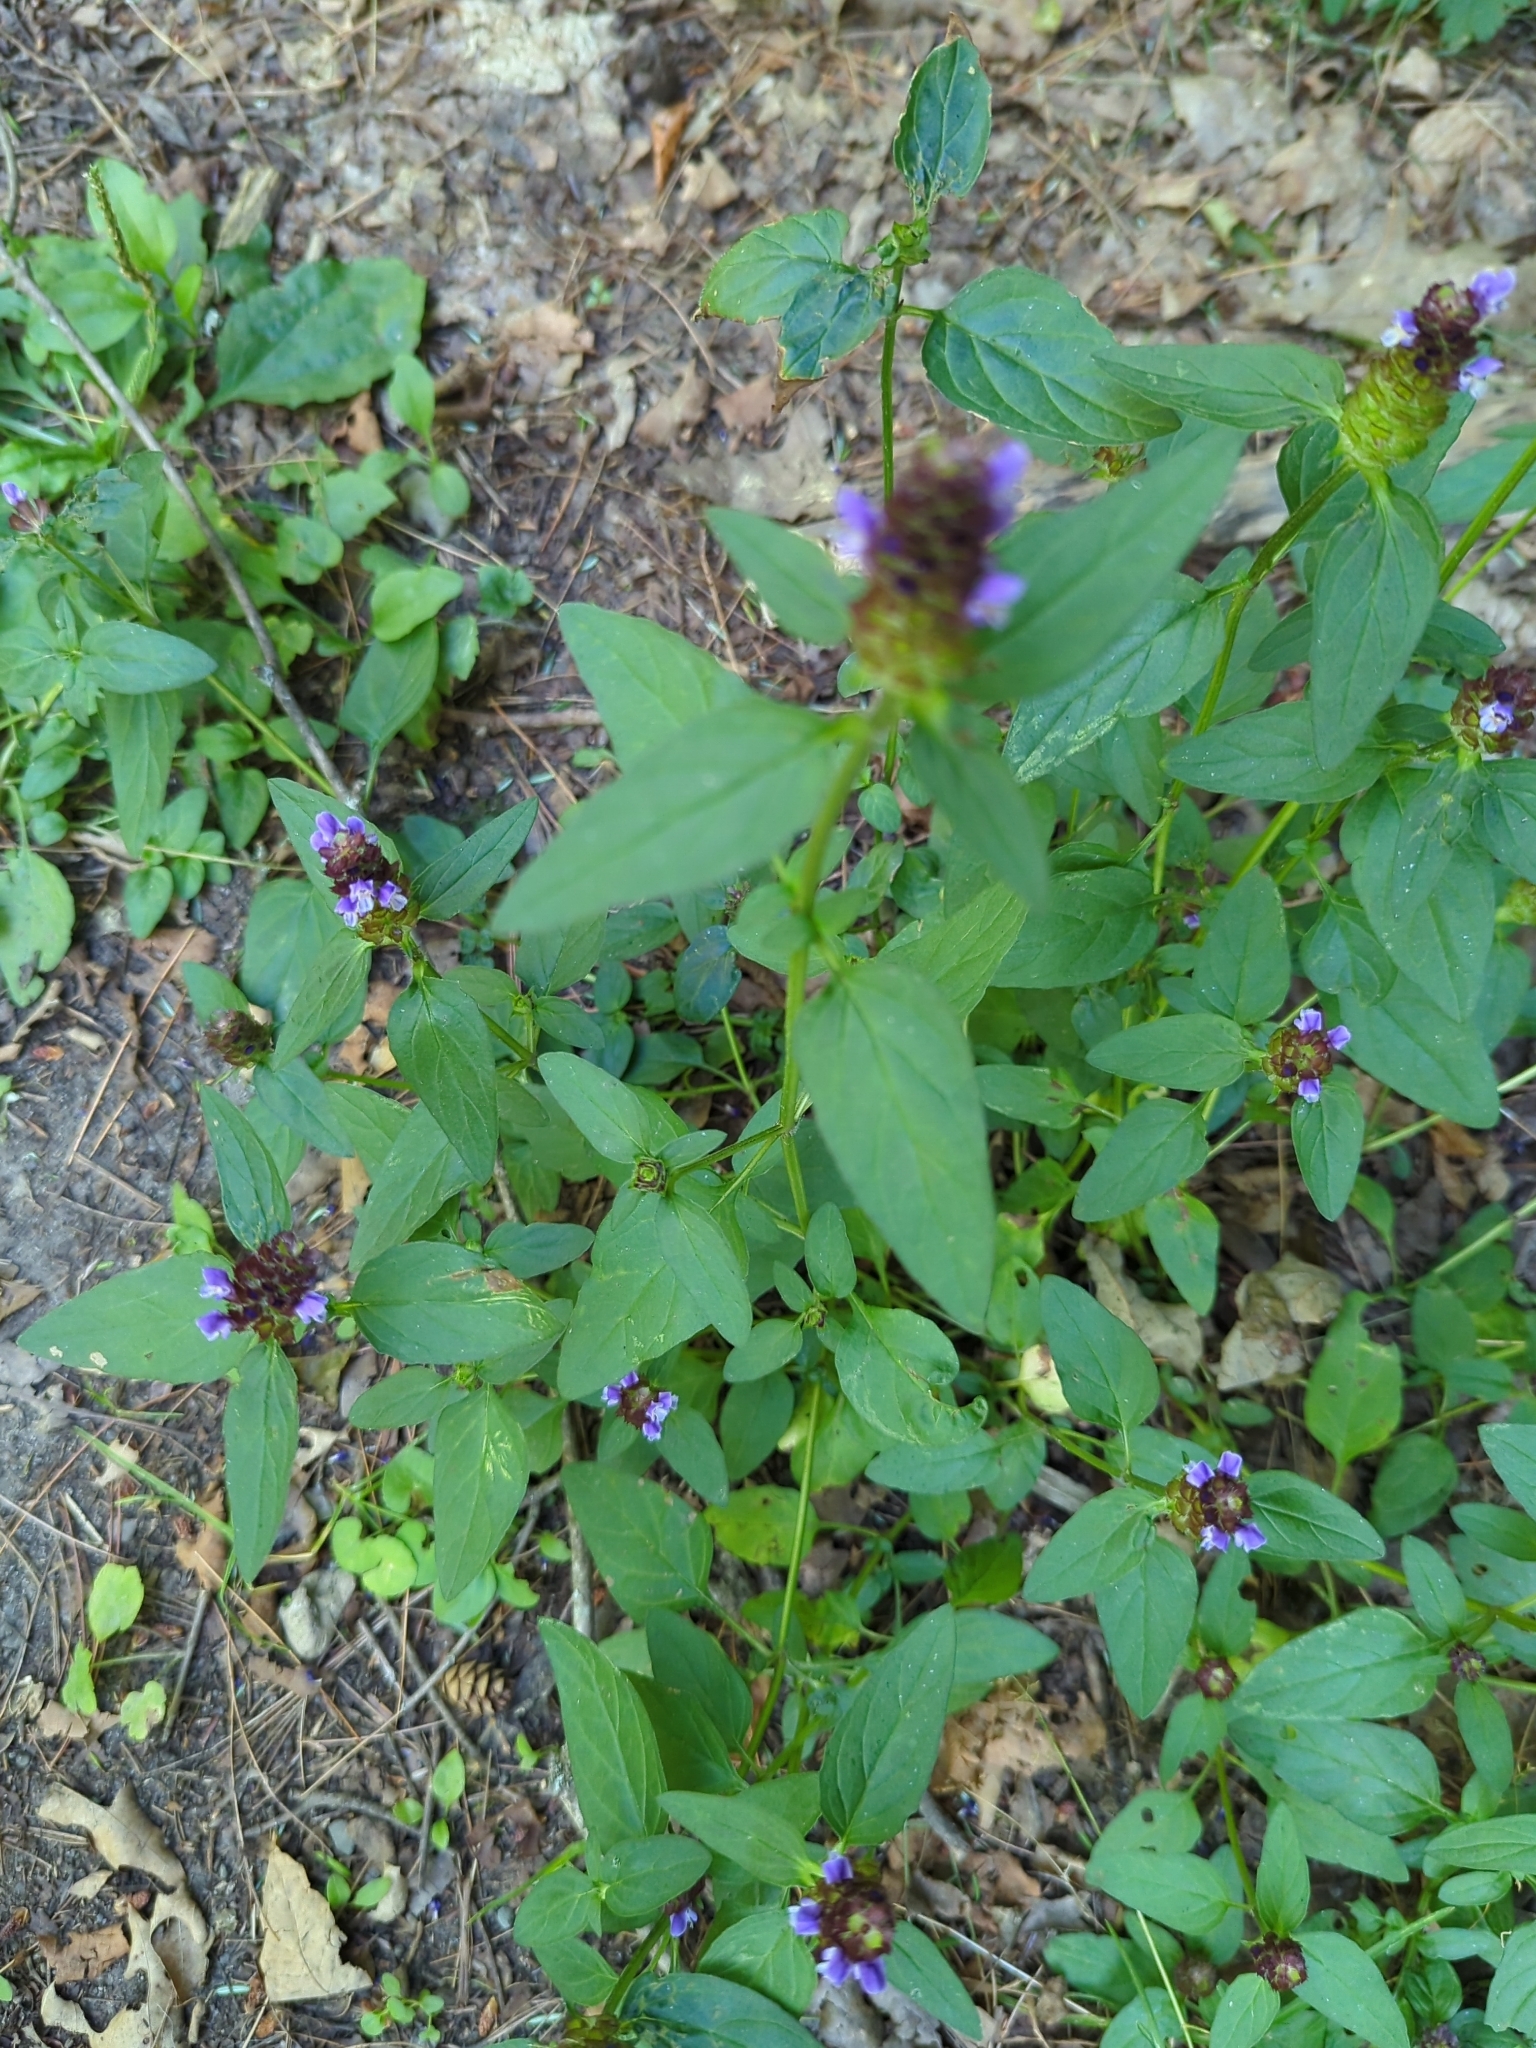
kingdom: Plantae
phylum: Tracheophyta
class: Magnoliopsida
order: Lamiales
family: Lamiaceae
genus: Prunella
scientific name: Prunella vulgaris
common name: Heal-all
